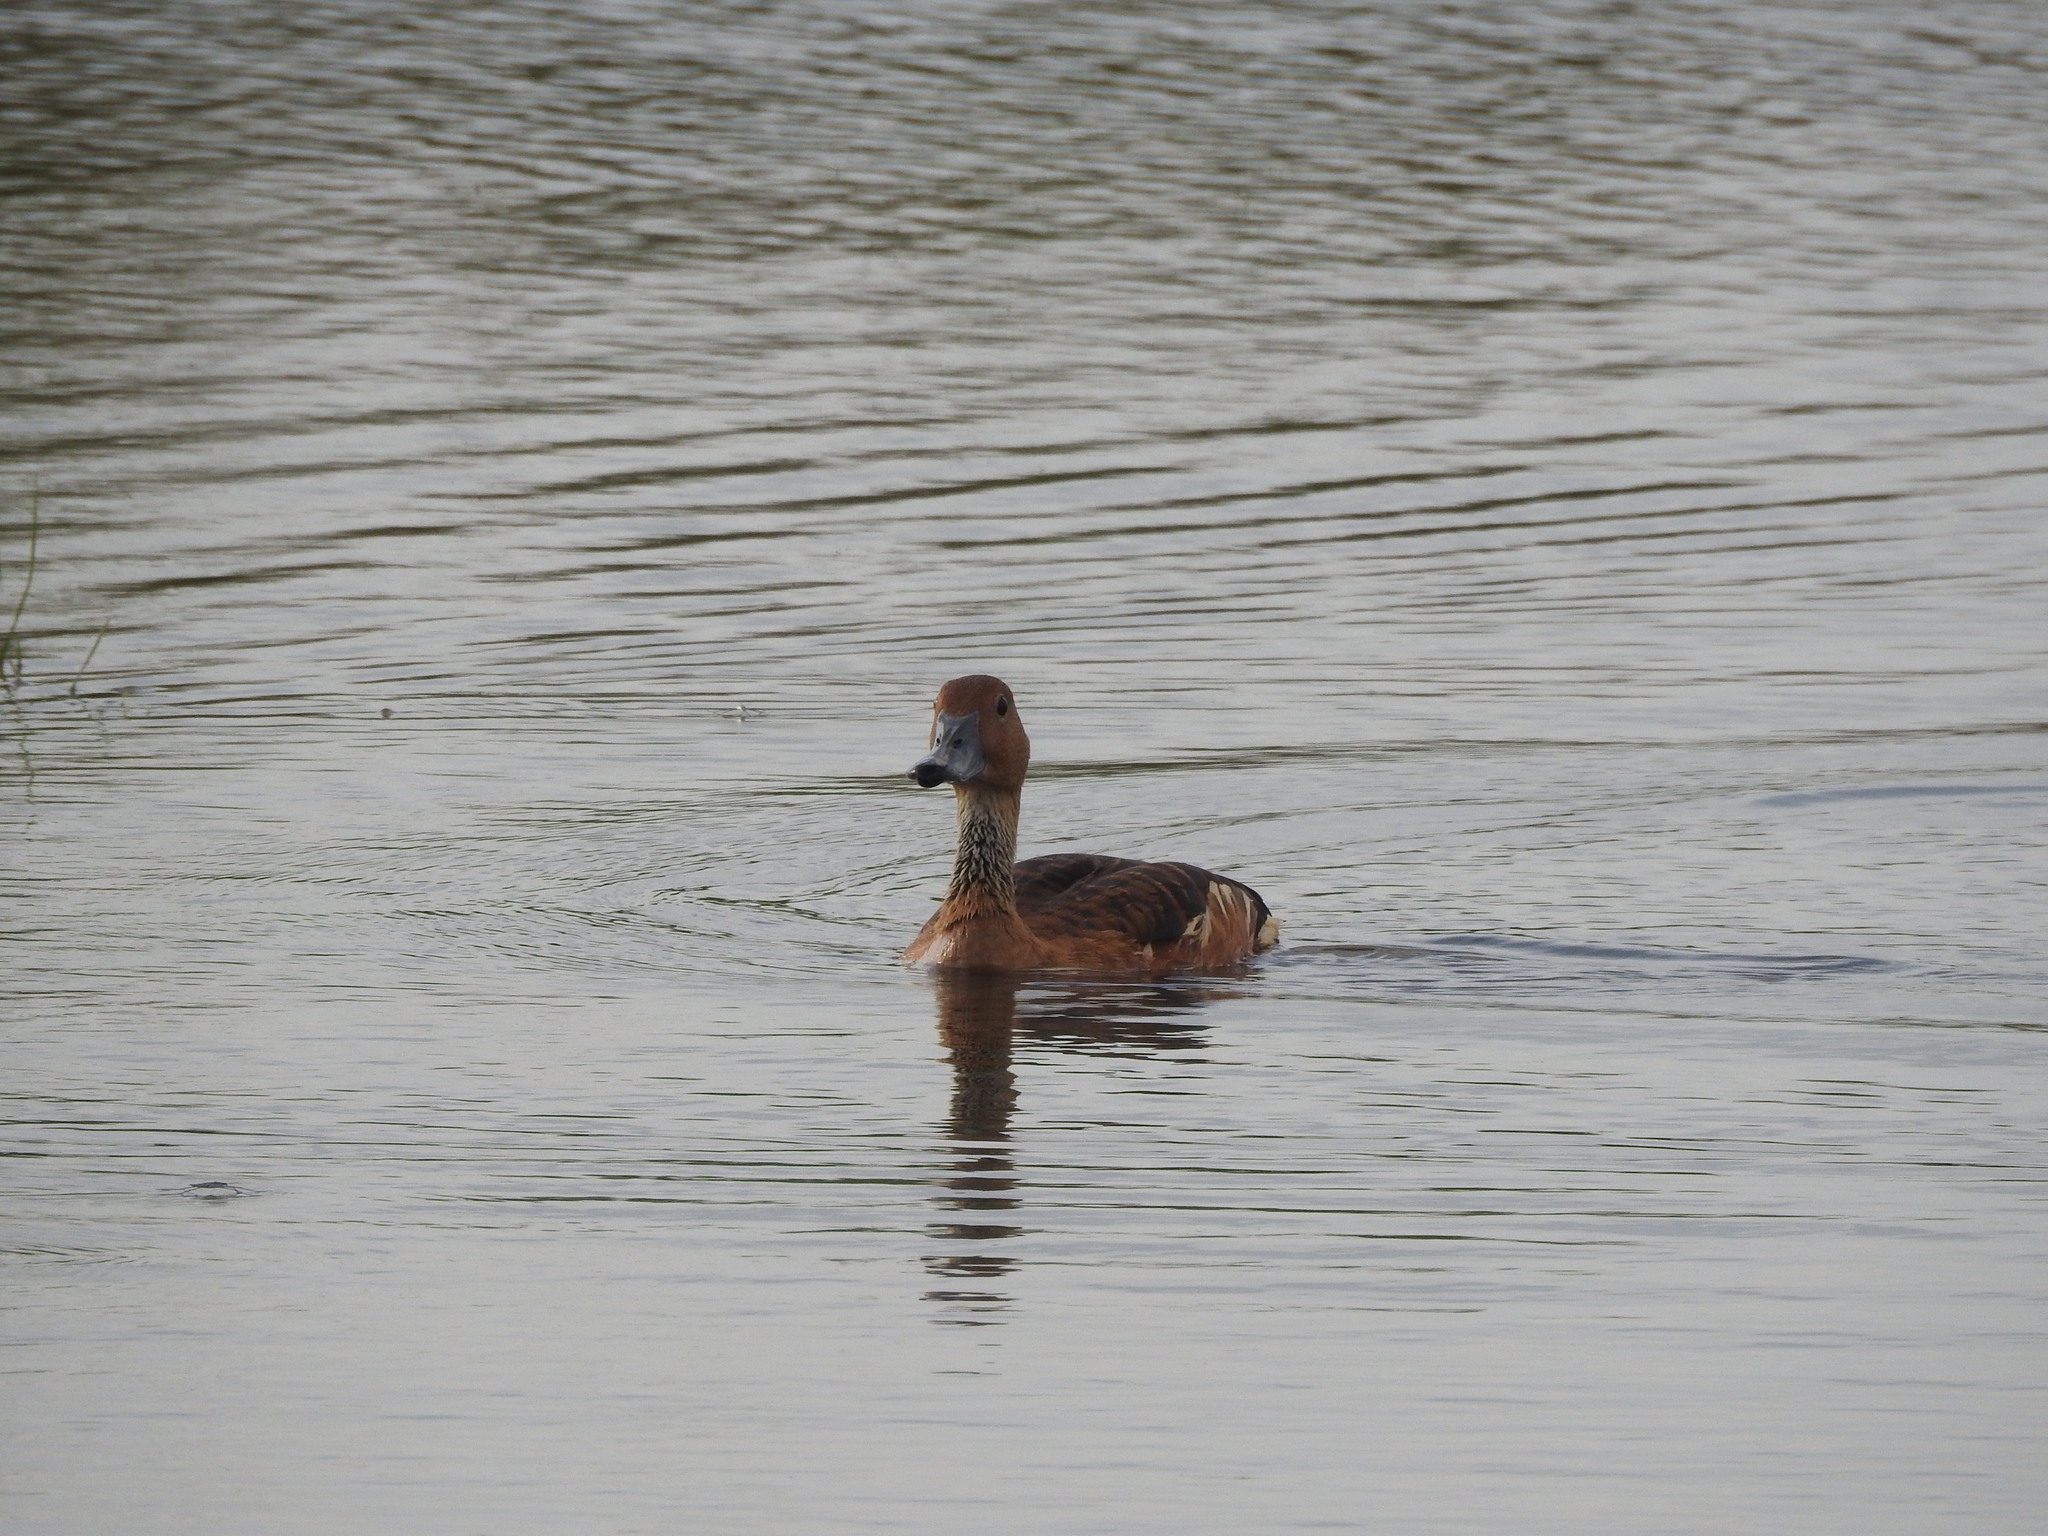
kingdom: Animalia
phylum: Chordata
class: Aves
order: Anseriformes
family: Anatidae
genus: Dendrocygna
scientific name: Dendrocygna bicolor
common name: Fulvous whistling duck
